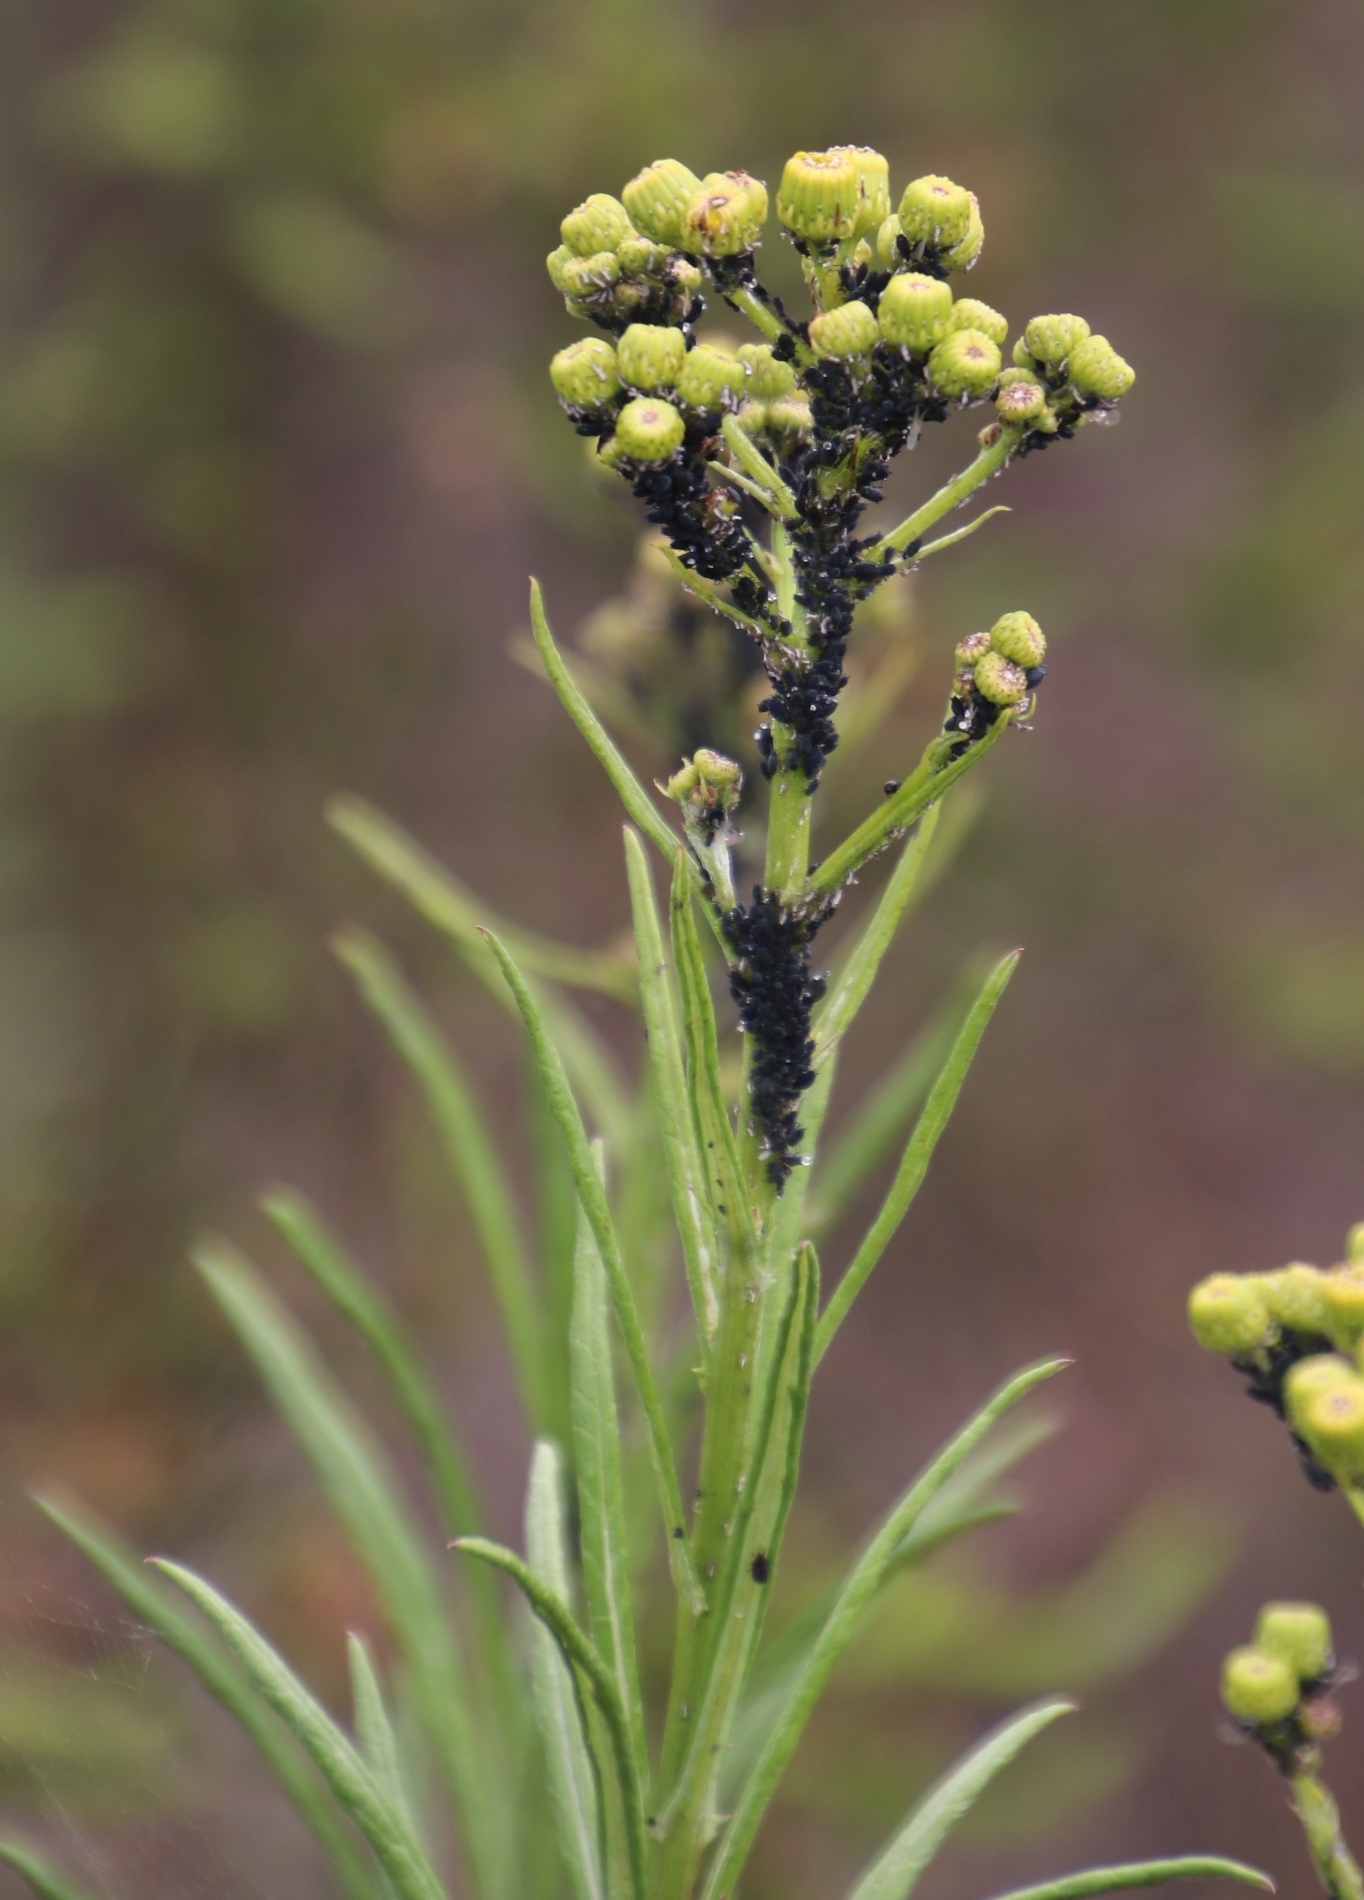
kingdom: Plantae
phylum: Tracheophyta
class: Magnoliopsida
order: Asterales
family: Asteraceae
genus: Senecio
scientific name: Senecio pterophorus
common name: Shoddy ragwort
